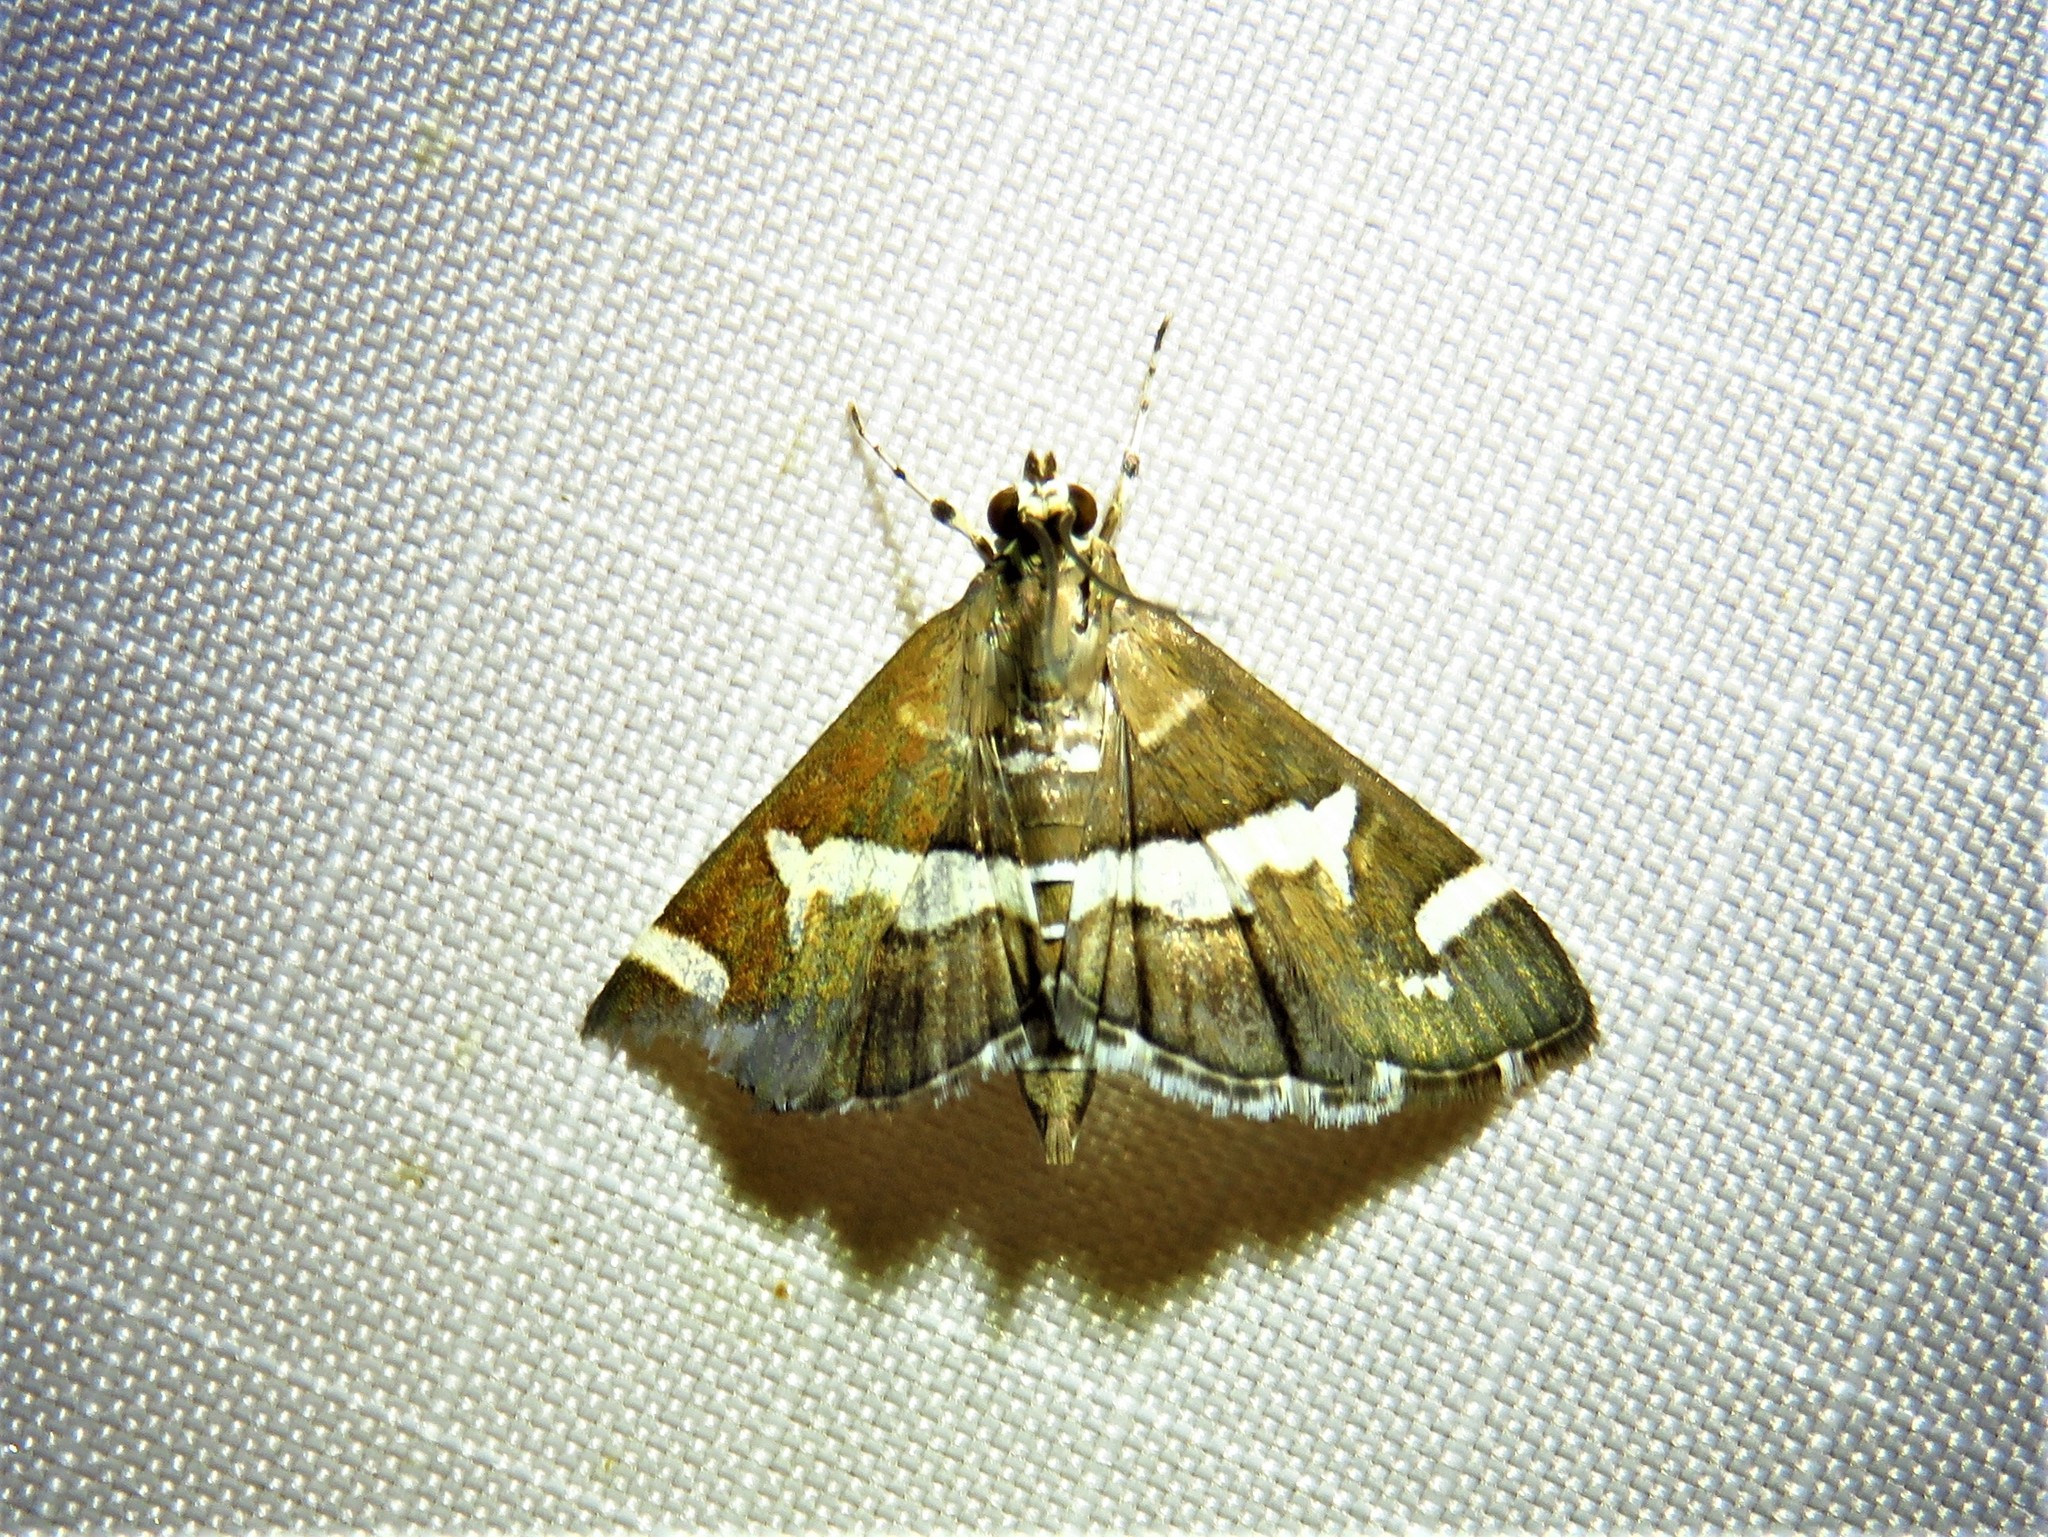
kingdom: Animalia
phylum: Arthropoda
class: Insecta
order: Lepidoptera
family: Crambidae
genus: Spoladea
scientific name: Spoladea recurvalis
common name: Beet webworm moth
